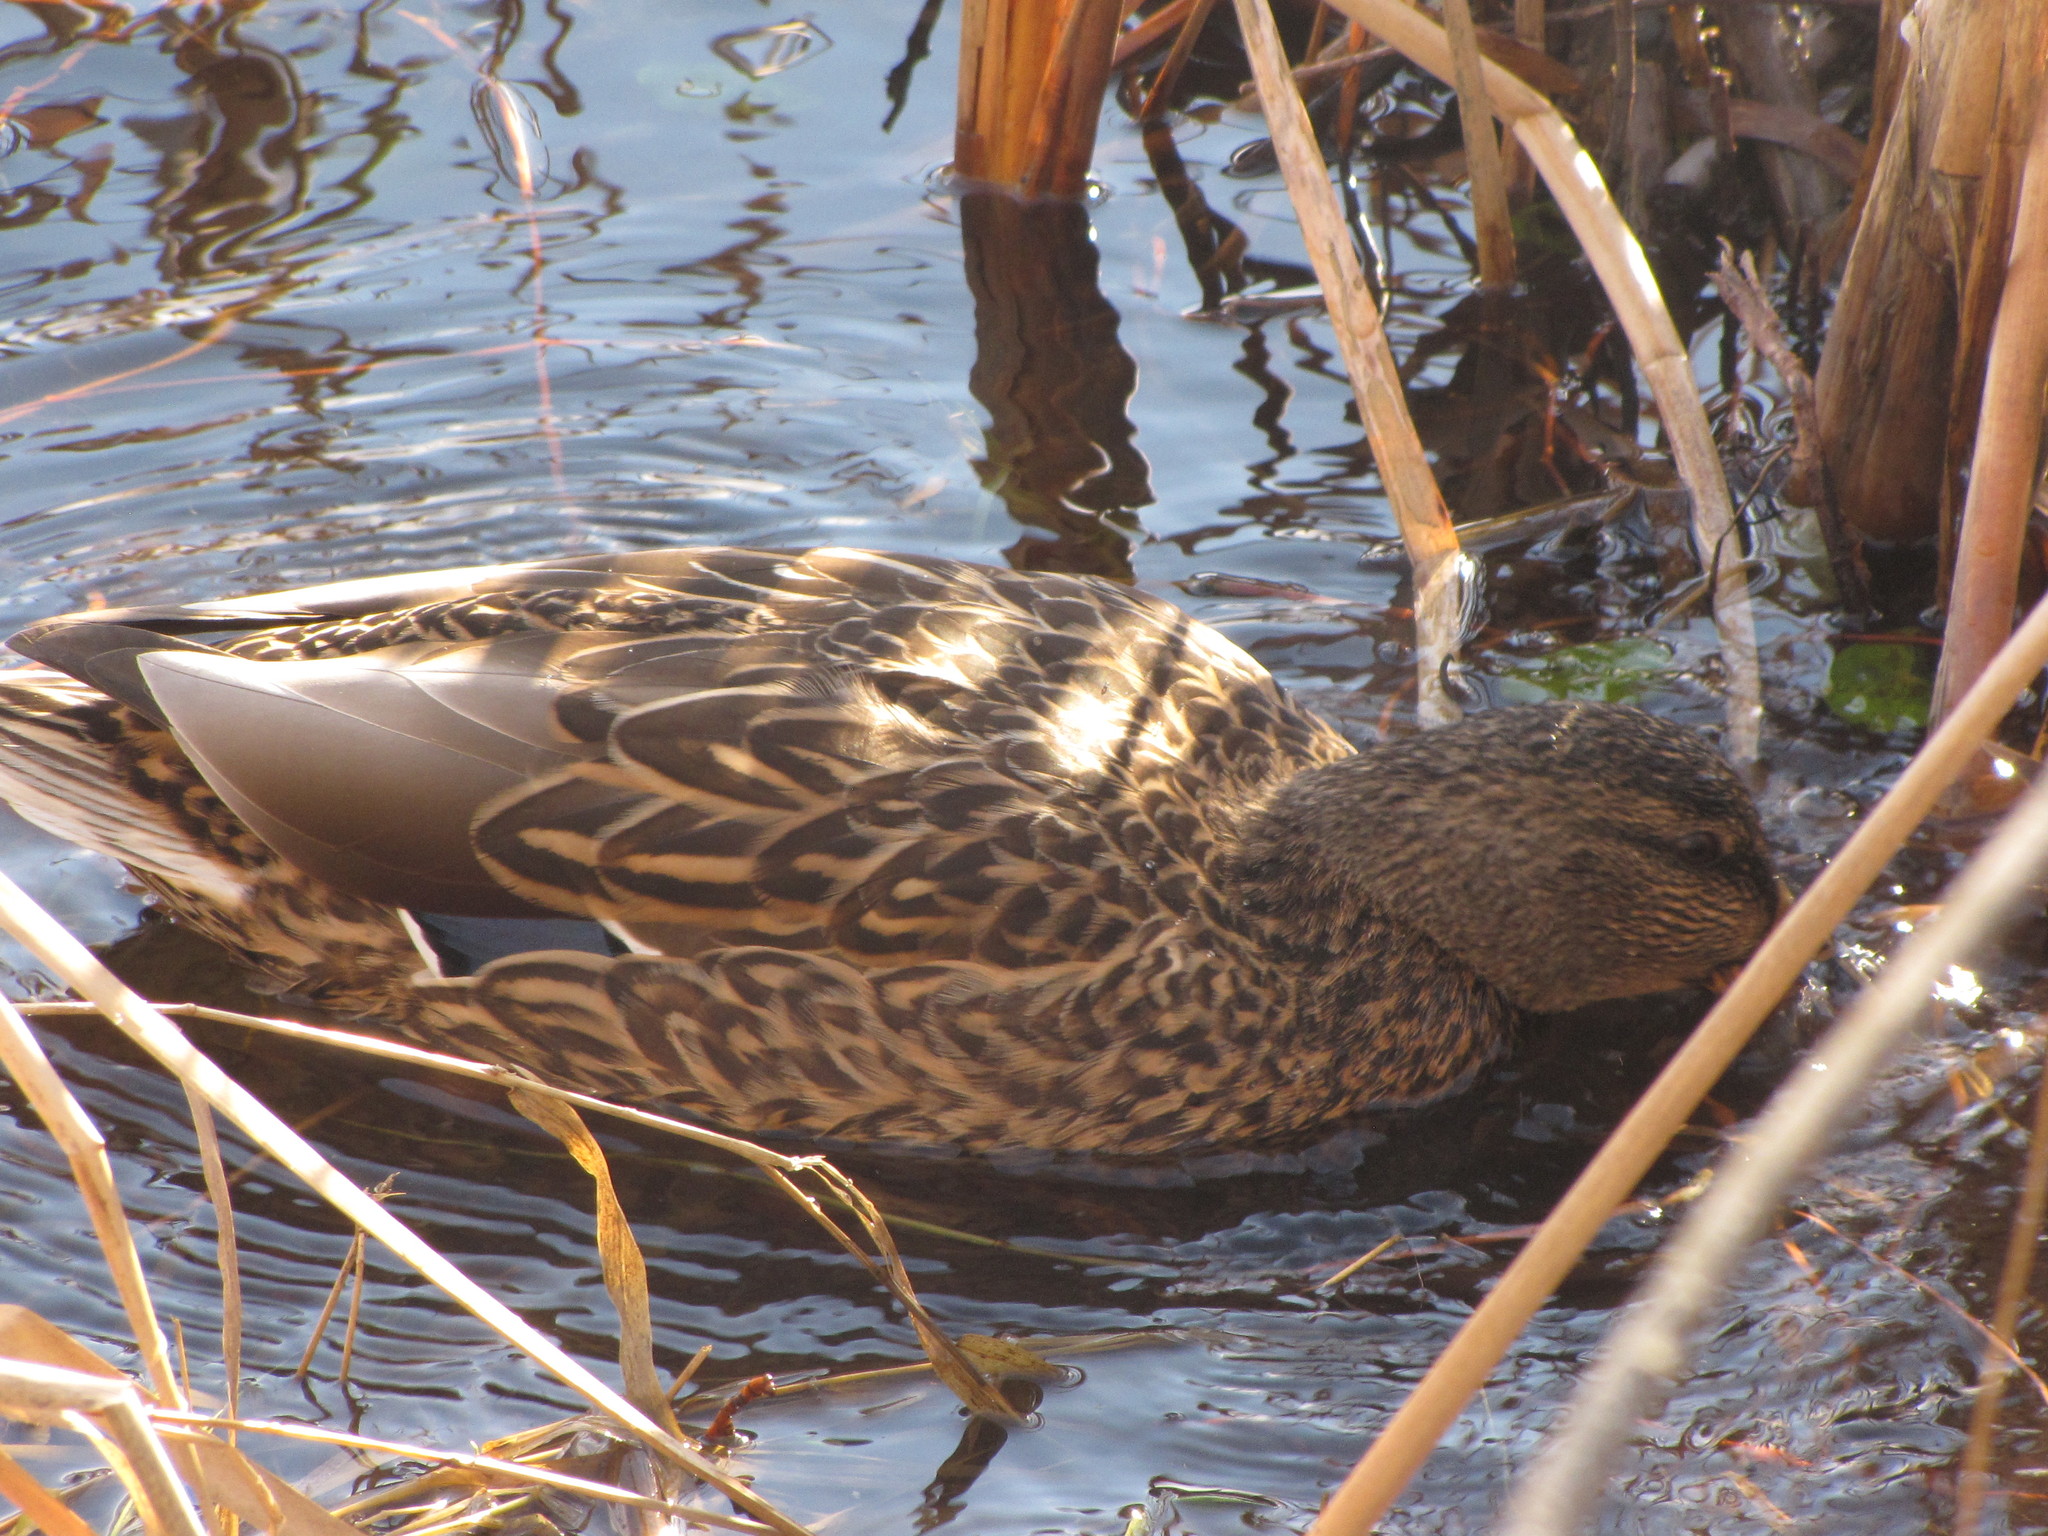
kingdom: Animalia
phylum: Chordata
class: Aves
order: Anseriformes
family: Anatidae
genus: Anas
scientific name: Anas platyrhynchos
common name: Mallard
